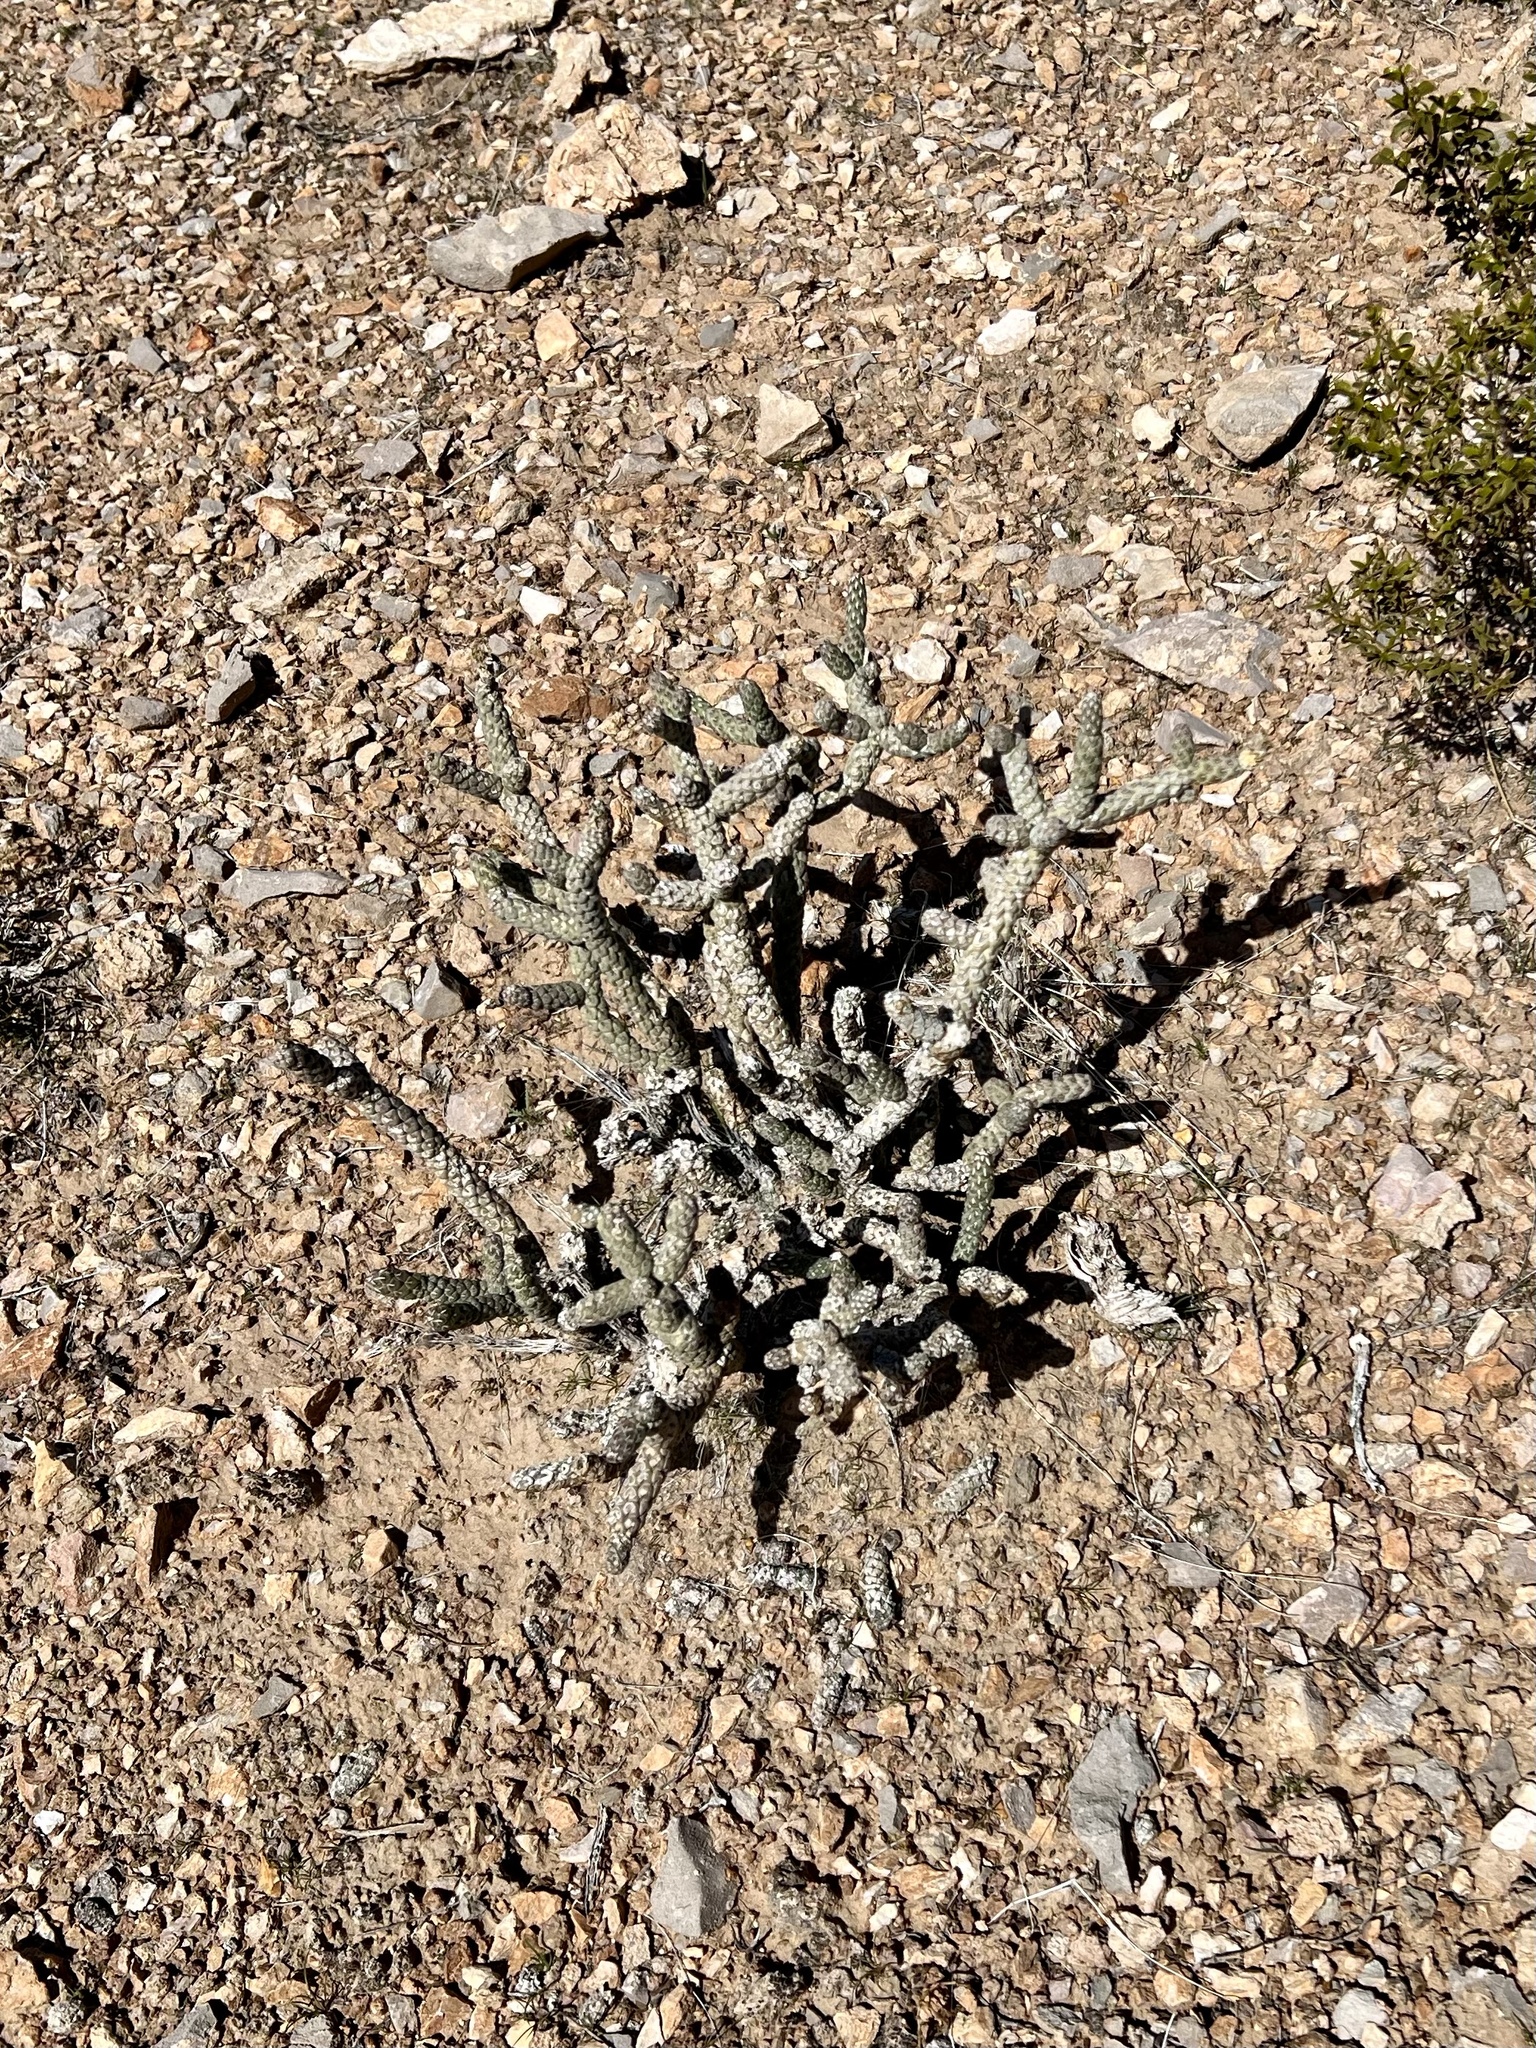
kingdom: Plantae
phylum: Tracheophyta
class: Magnoliopsida
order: Caryophyllales
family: Cactaceae
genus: Cylindropuntia
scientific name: Cylindropuntia ramosissima
